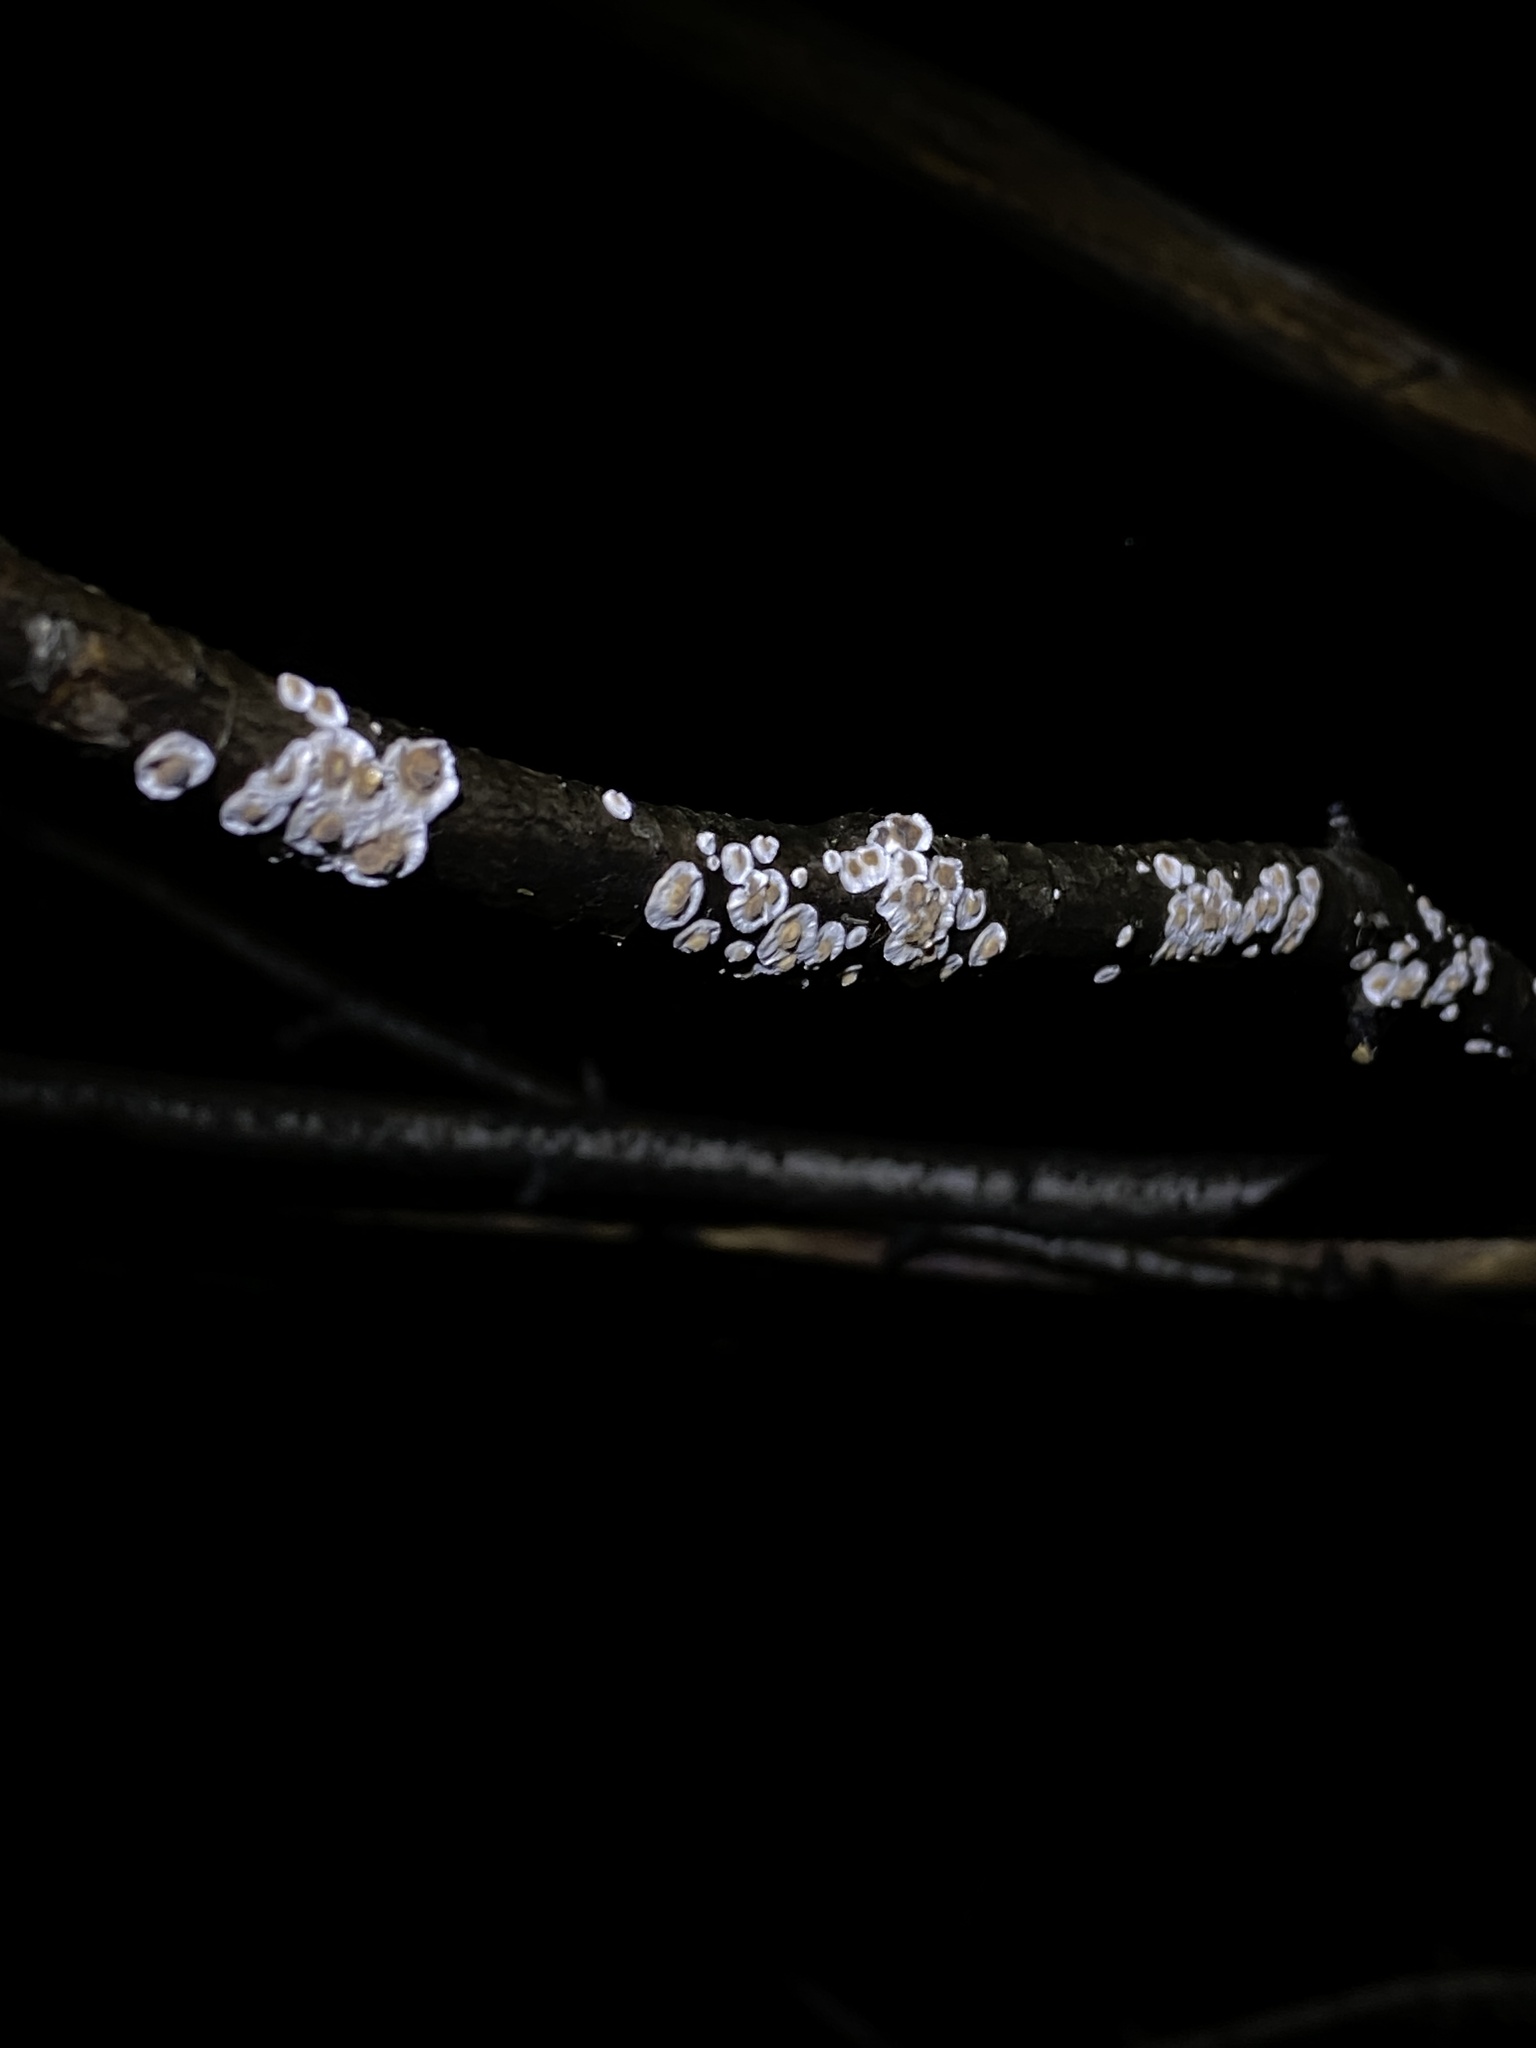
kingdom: Fungi
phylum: Basidiomycota
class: Agaricomycetes
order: Russulales
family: Peniophoraceae
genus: Peniophora
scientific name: Peniophora albobadia
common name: Giraffe spots
